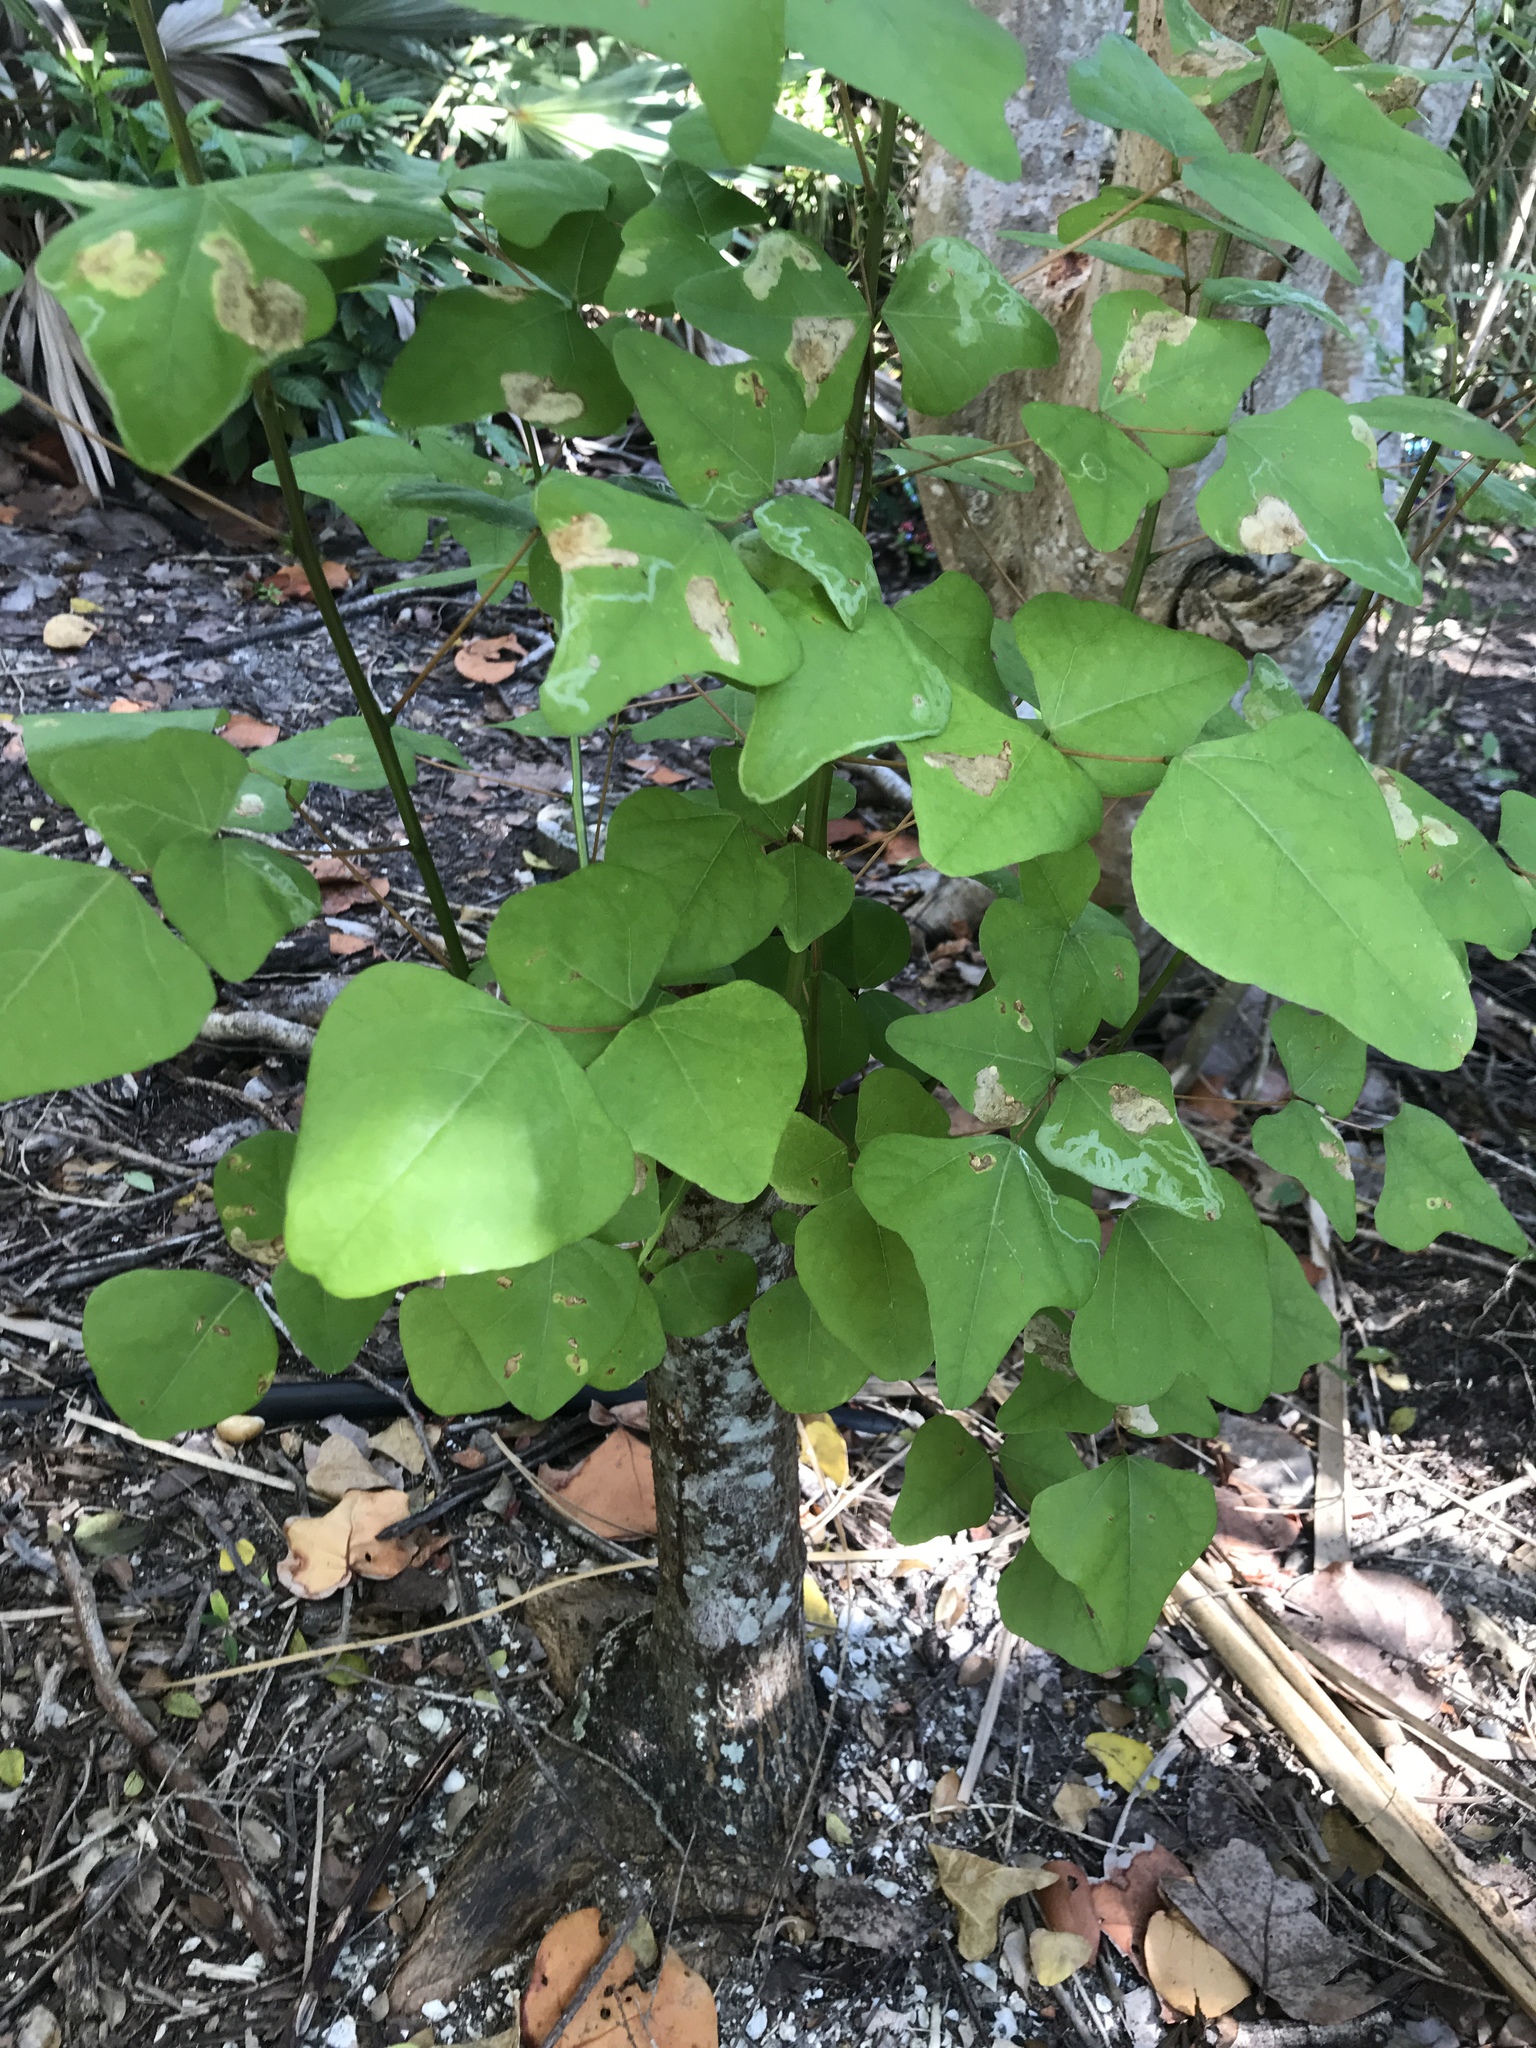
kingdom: Plantae
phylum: Tracheophyta
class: Magnoliopsida
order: Fabales
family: Fabaceae
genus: Erythrina
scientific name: Erythrina herbacea
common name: Coral-bean
